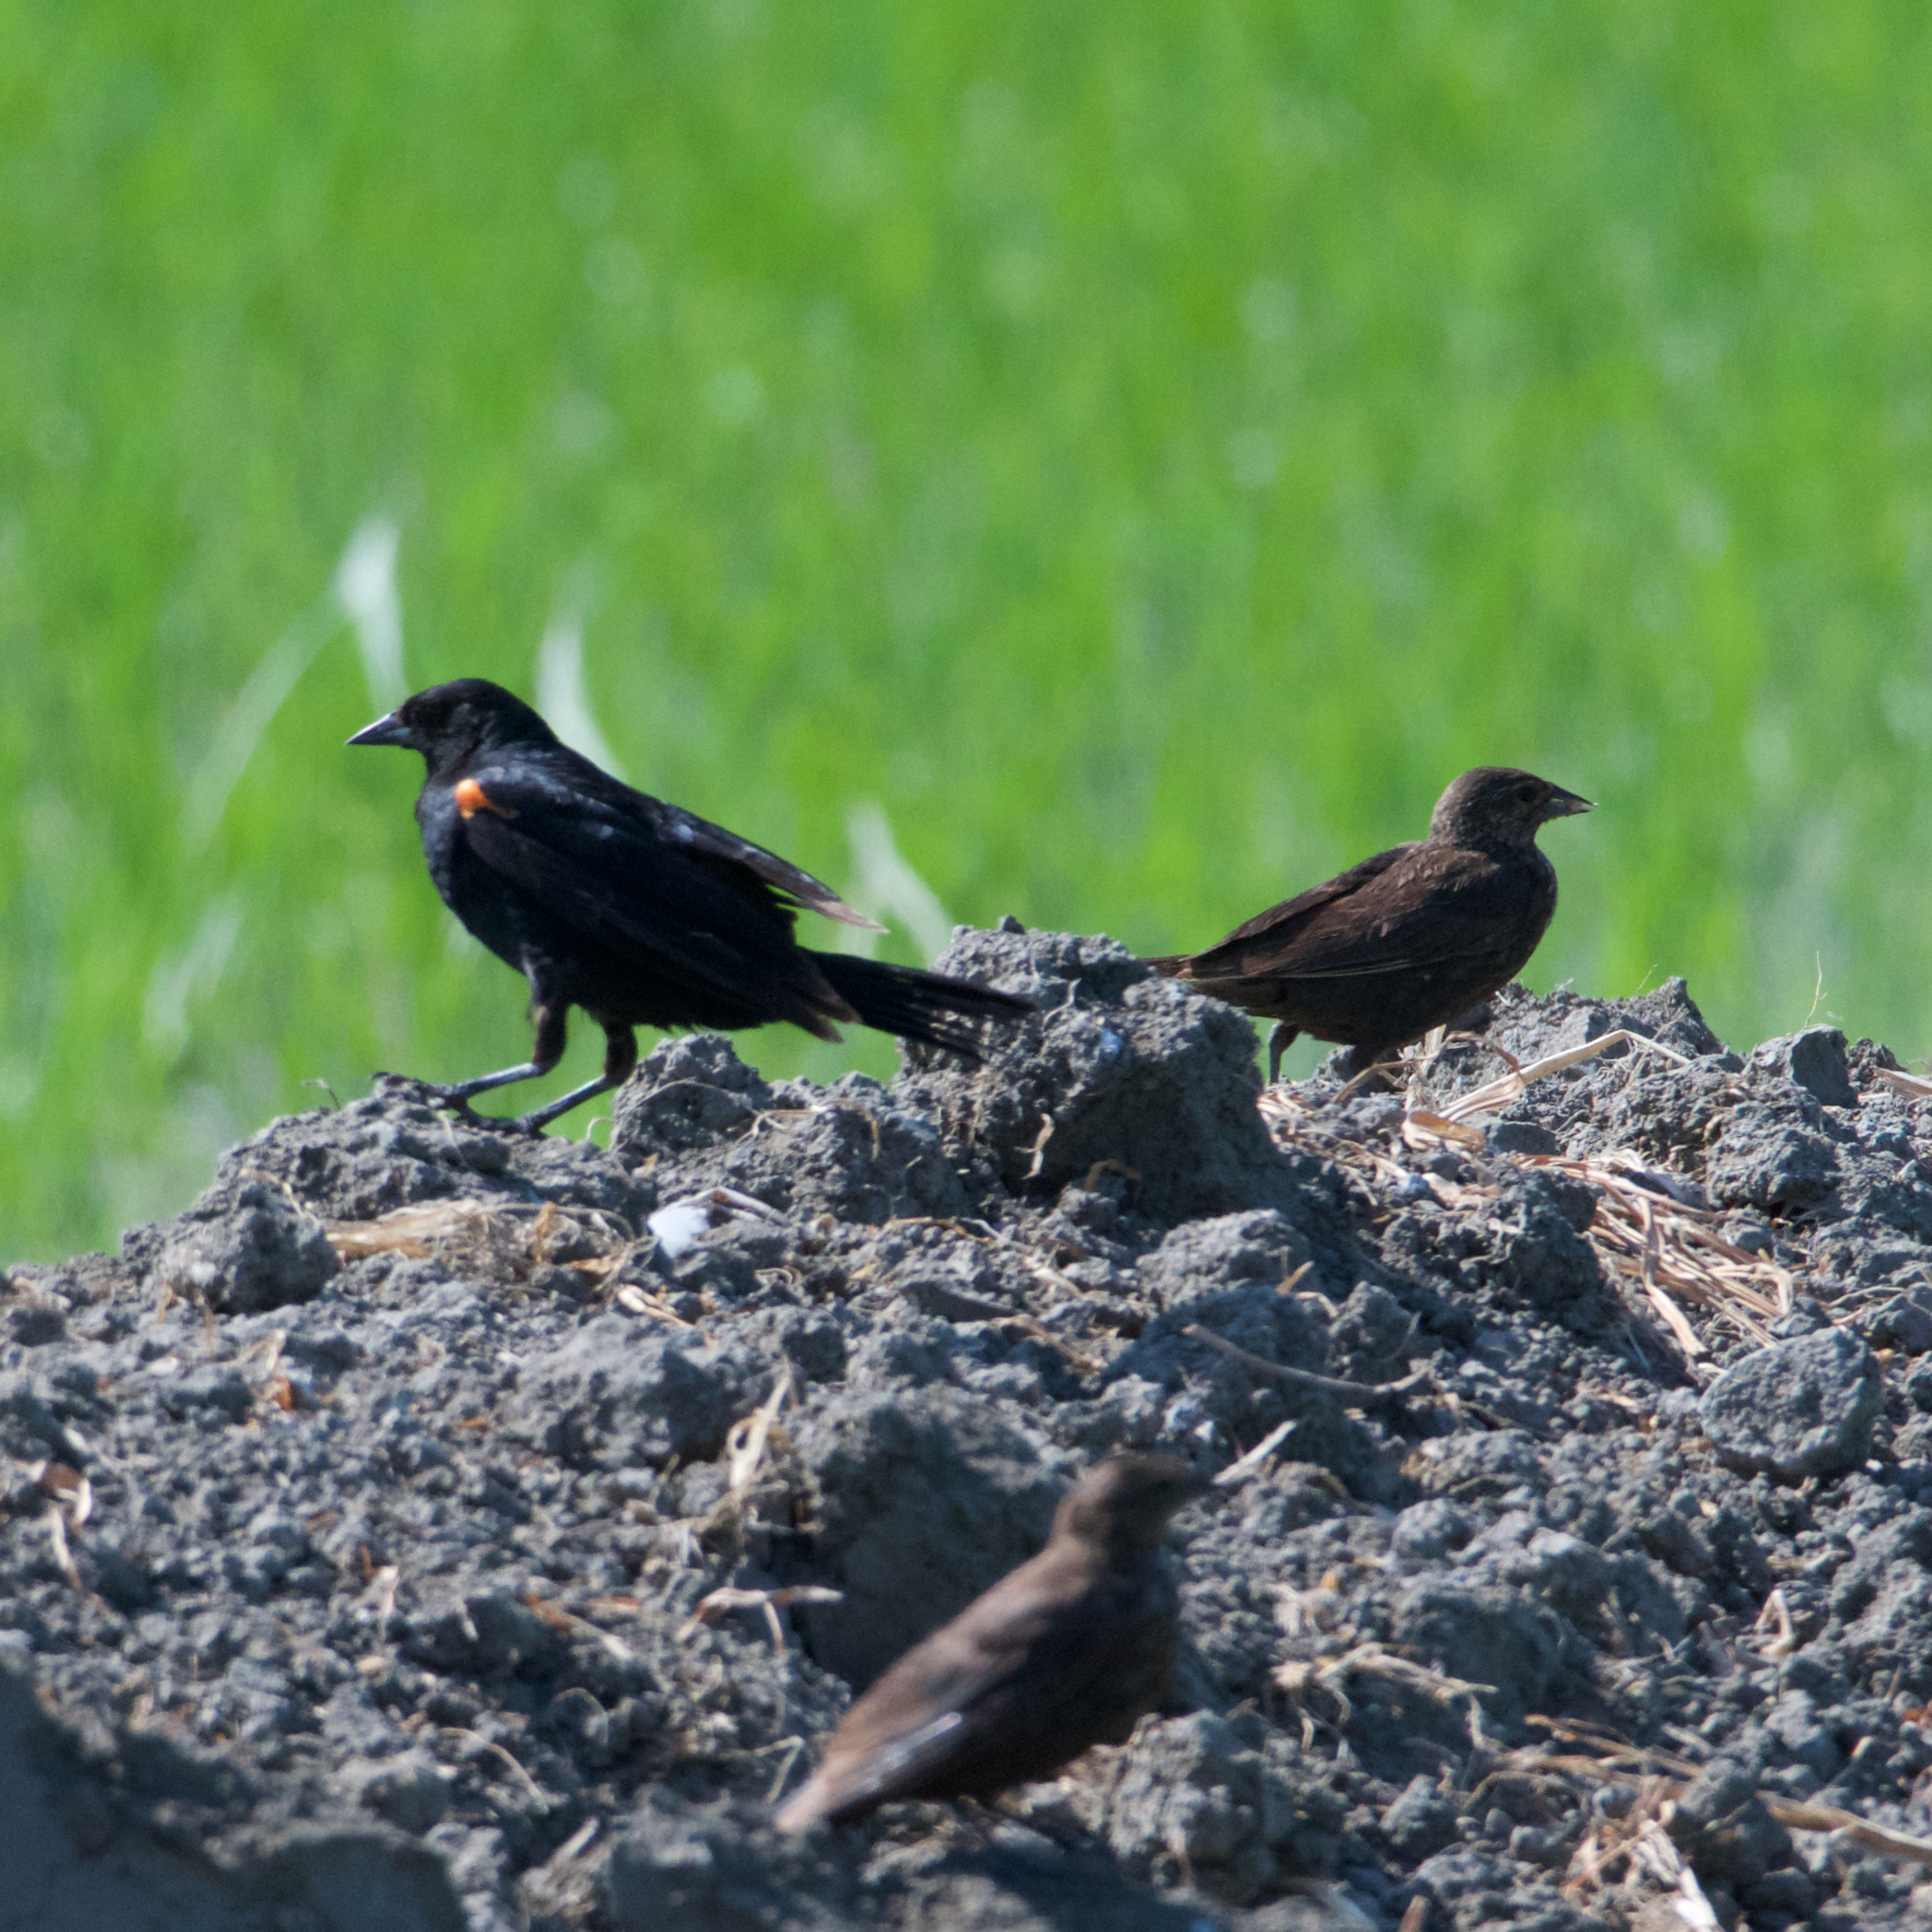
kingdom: Animalia
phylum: Chordata
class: Aves
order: Passeriformes
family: Icteridae
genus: Agelaius
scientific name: Agelaius phoeniceus
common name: Red-winged blackbird
